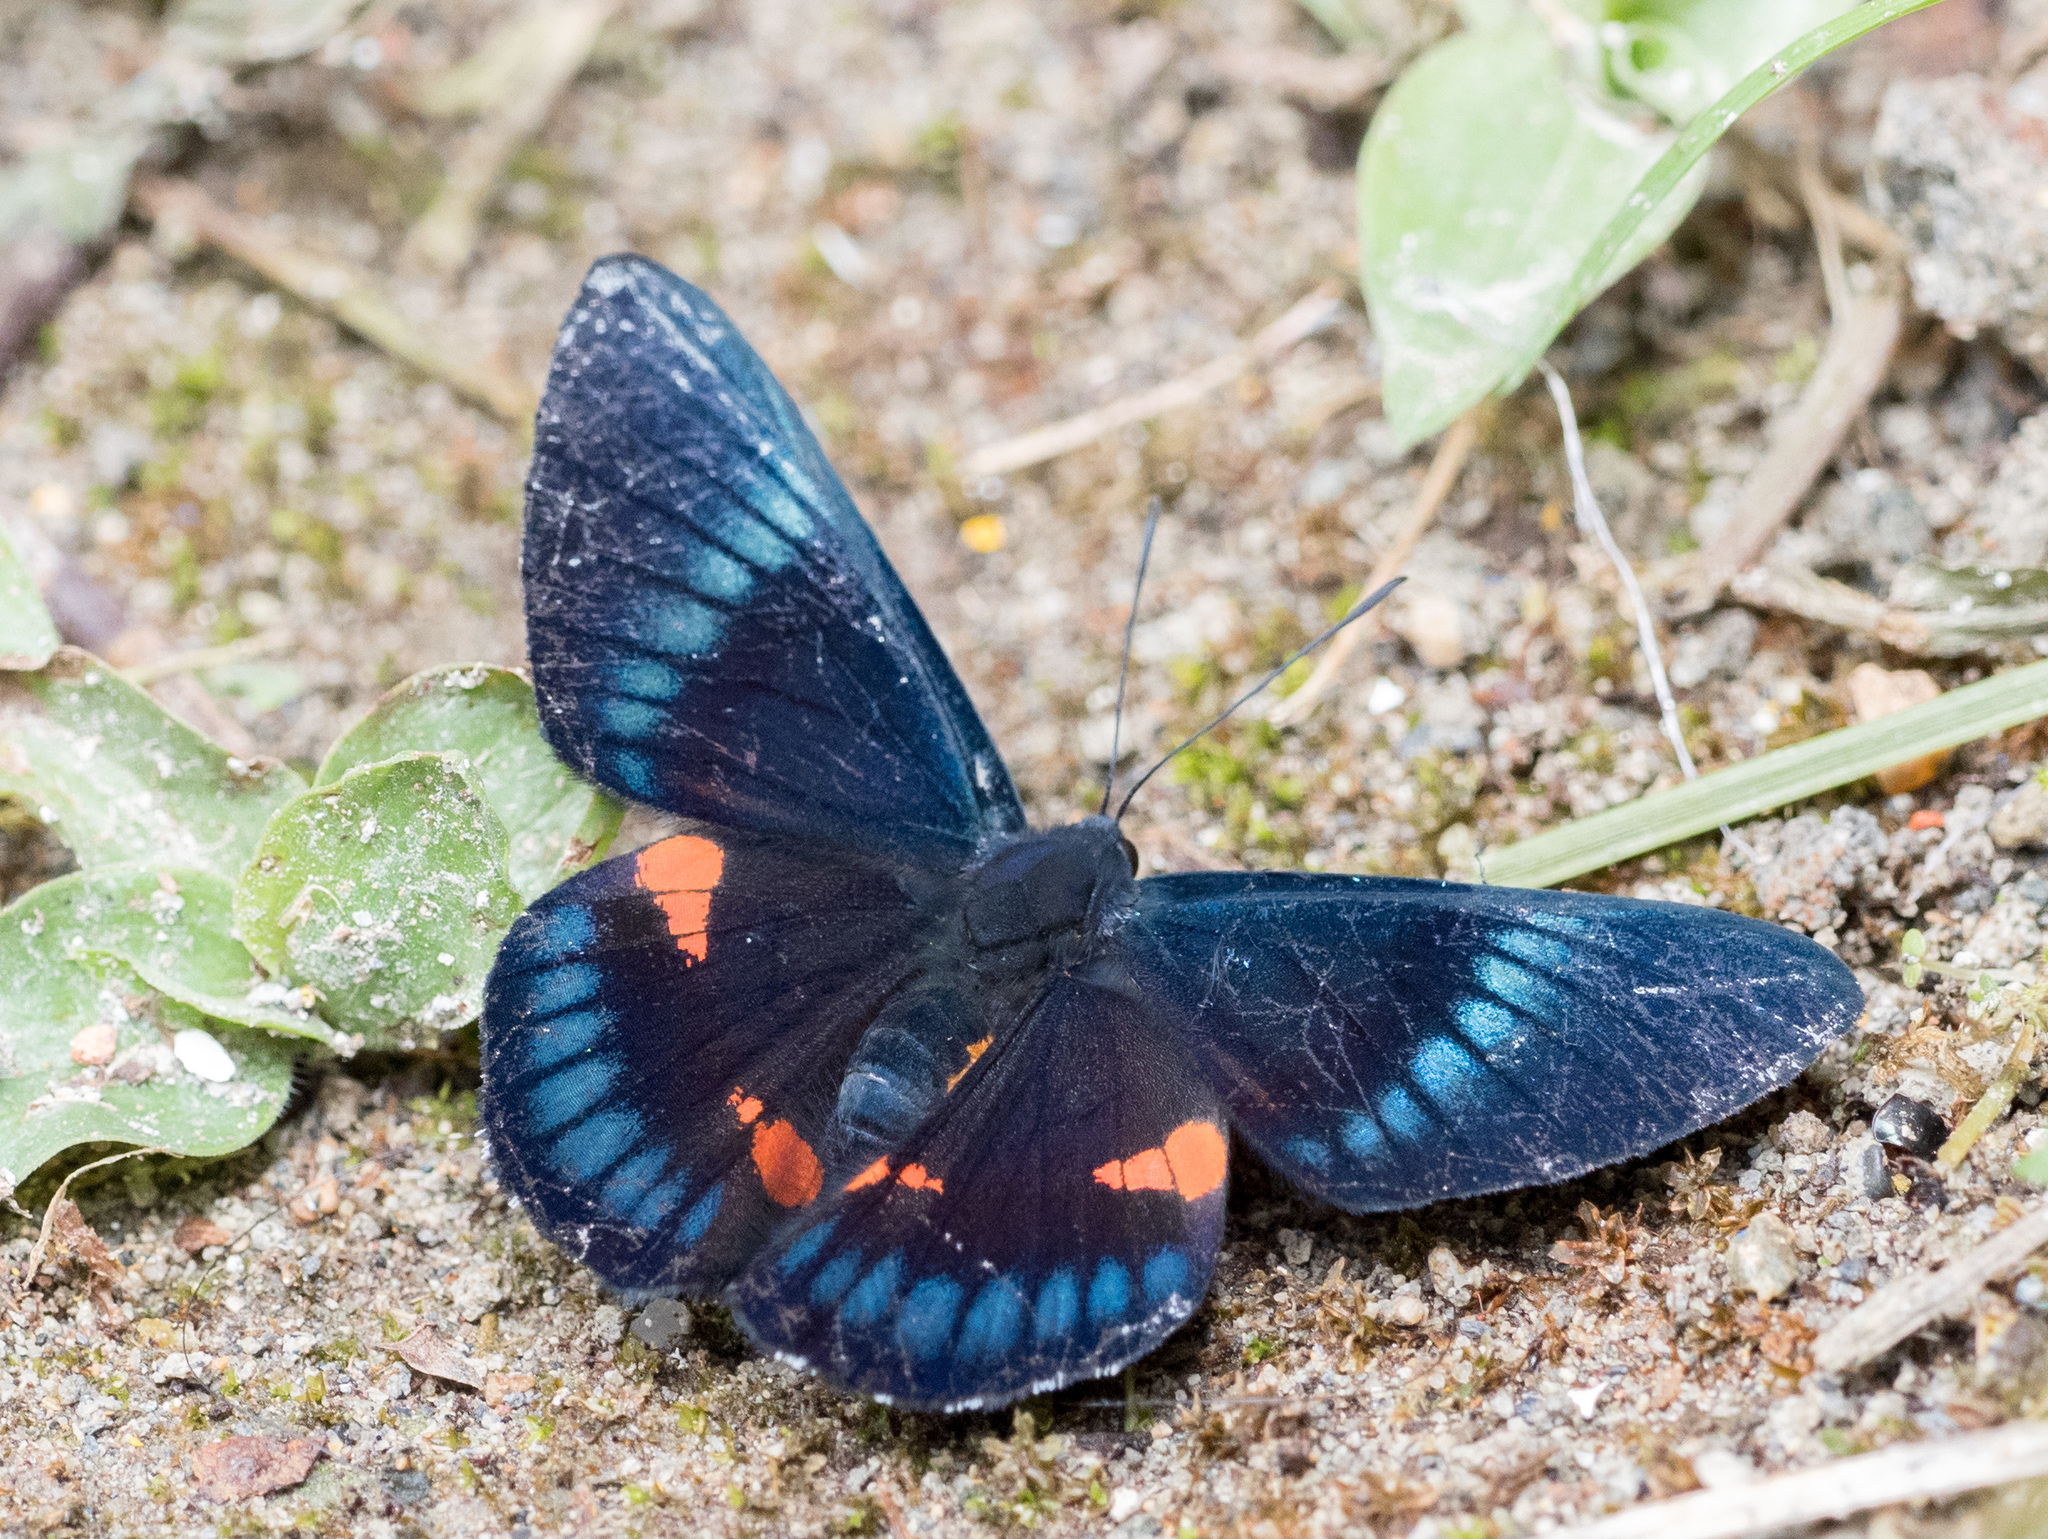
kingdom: Animalia
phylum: Arthropoda
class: Insecta
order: Lepidoptera
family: Lycaenidae
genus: Necyria
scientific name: Necyria bellona
